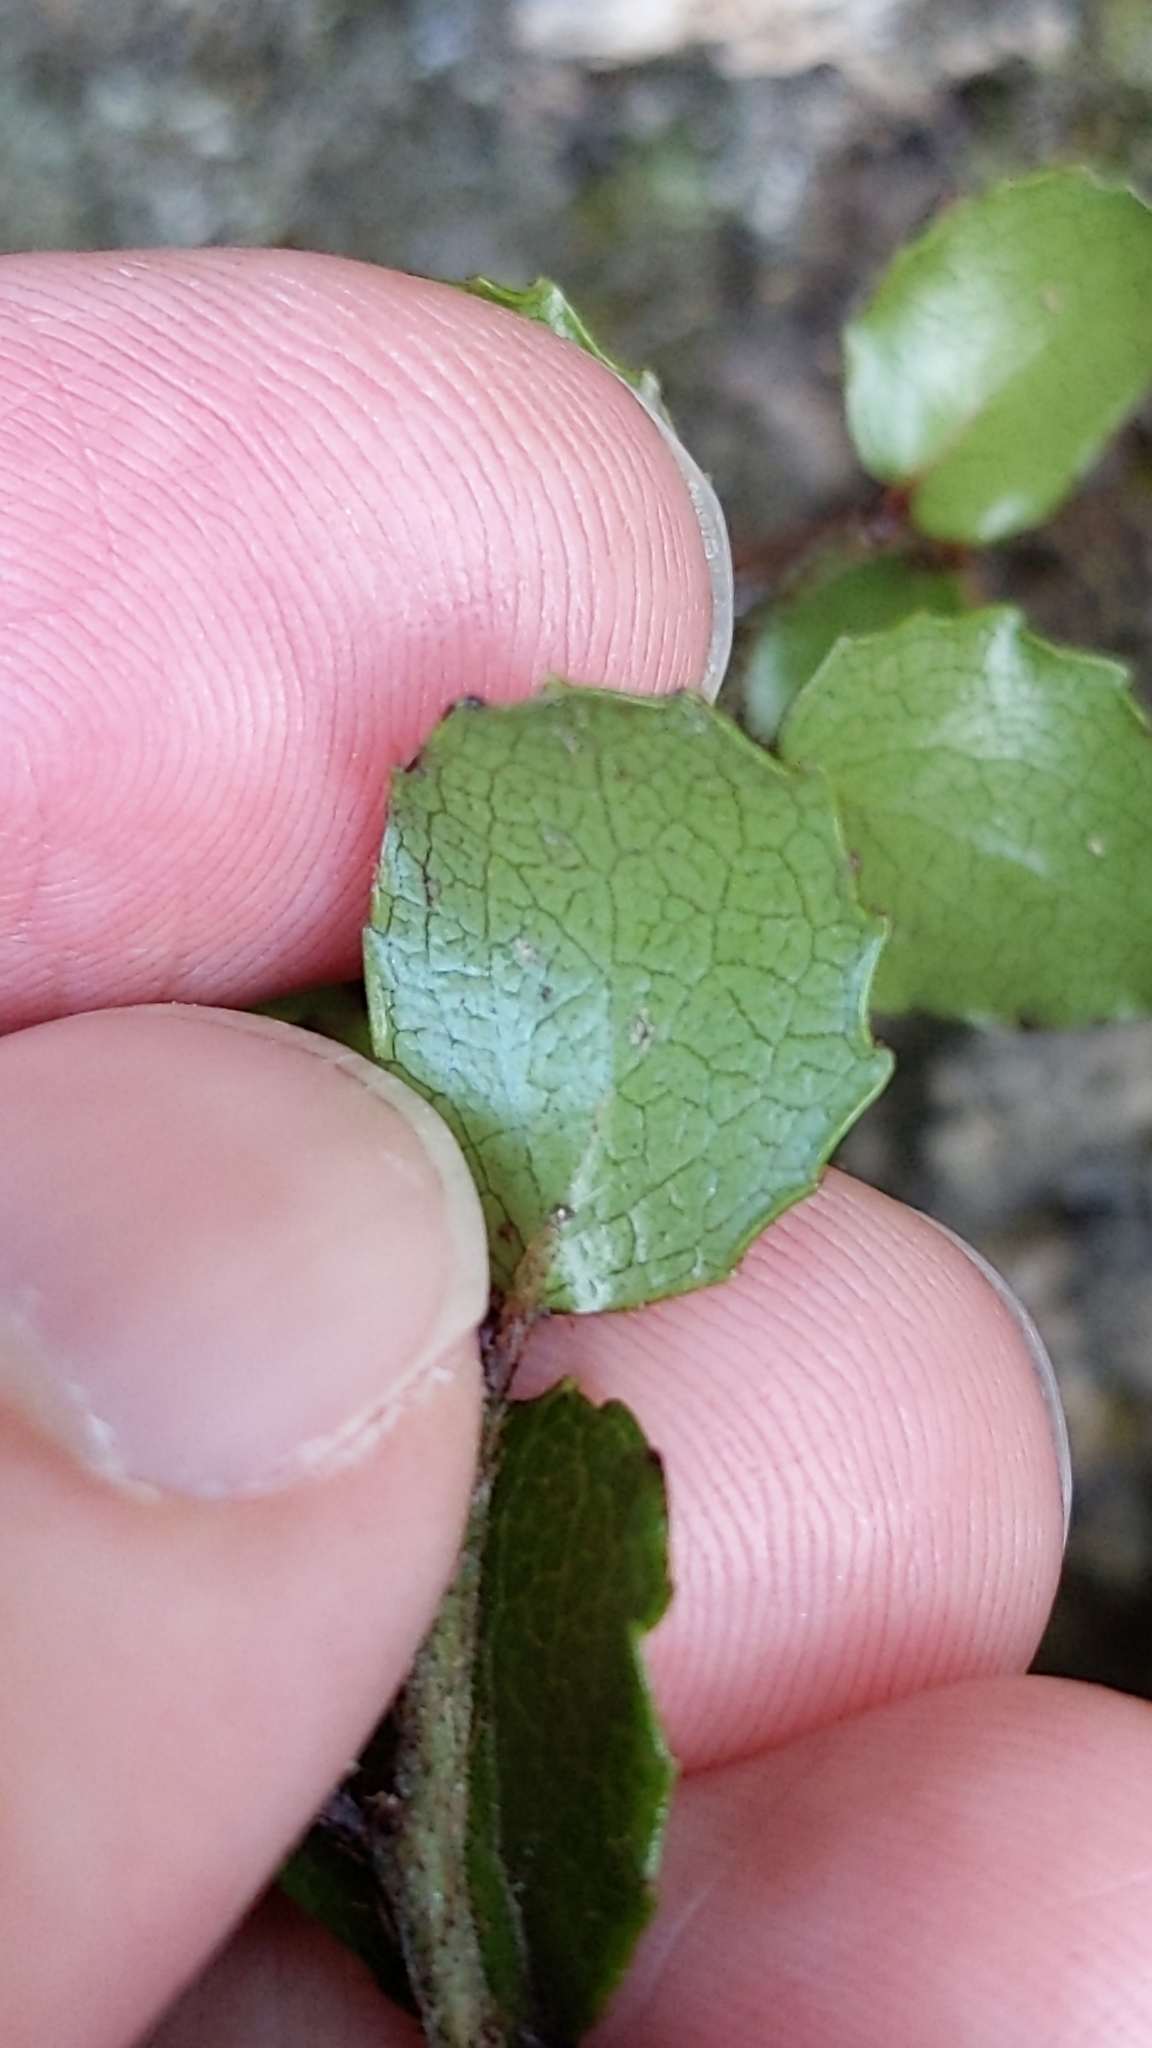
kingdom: Plantae
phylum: Tracheophyta
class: Magnoliopsida
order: Ericales
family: Ericaceae
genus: Gaultheria
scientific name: Gaultheria antipoda
